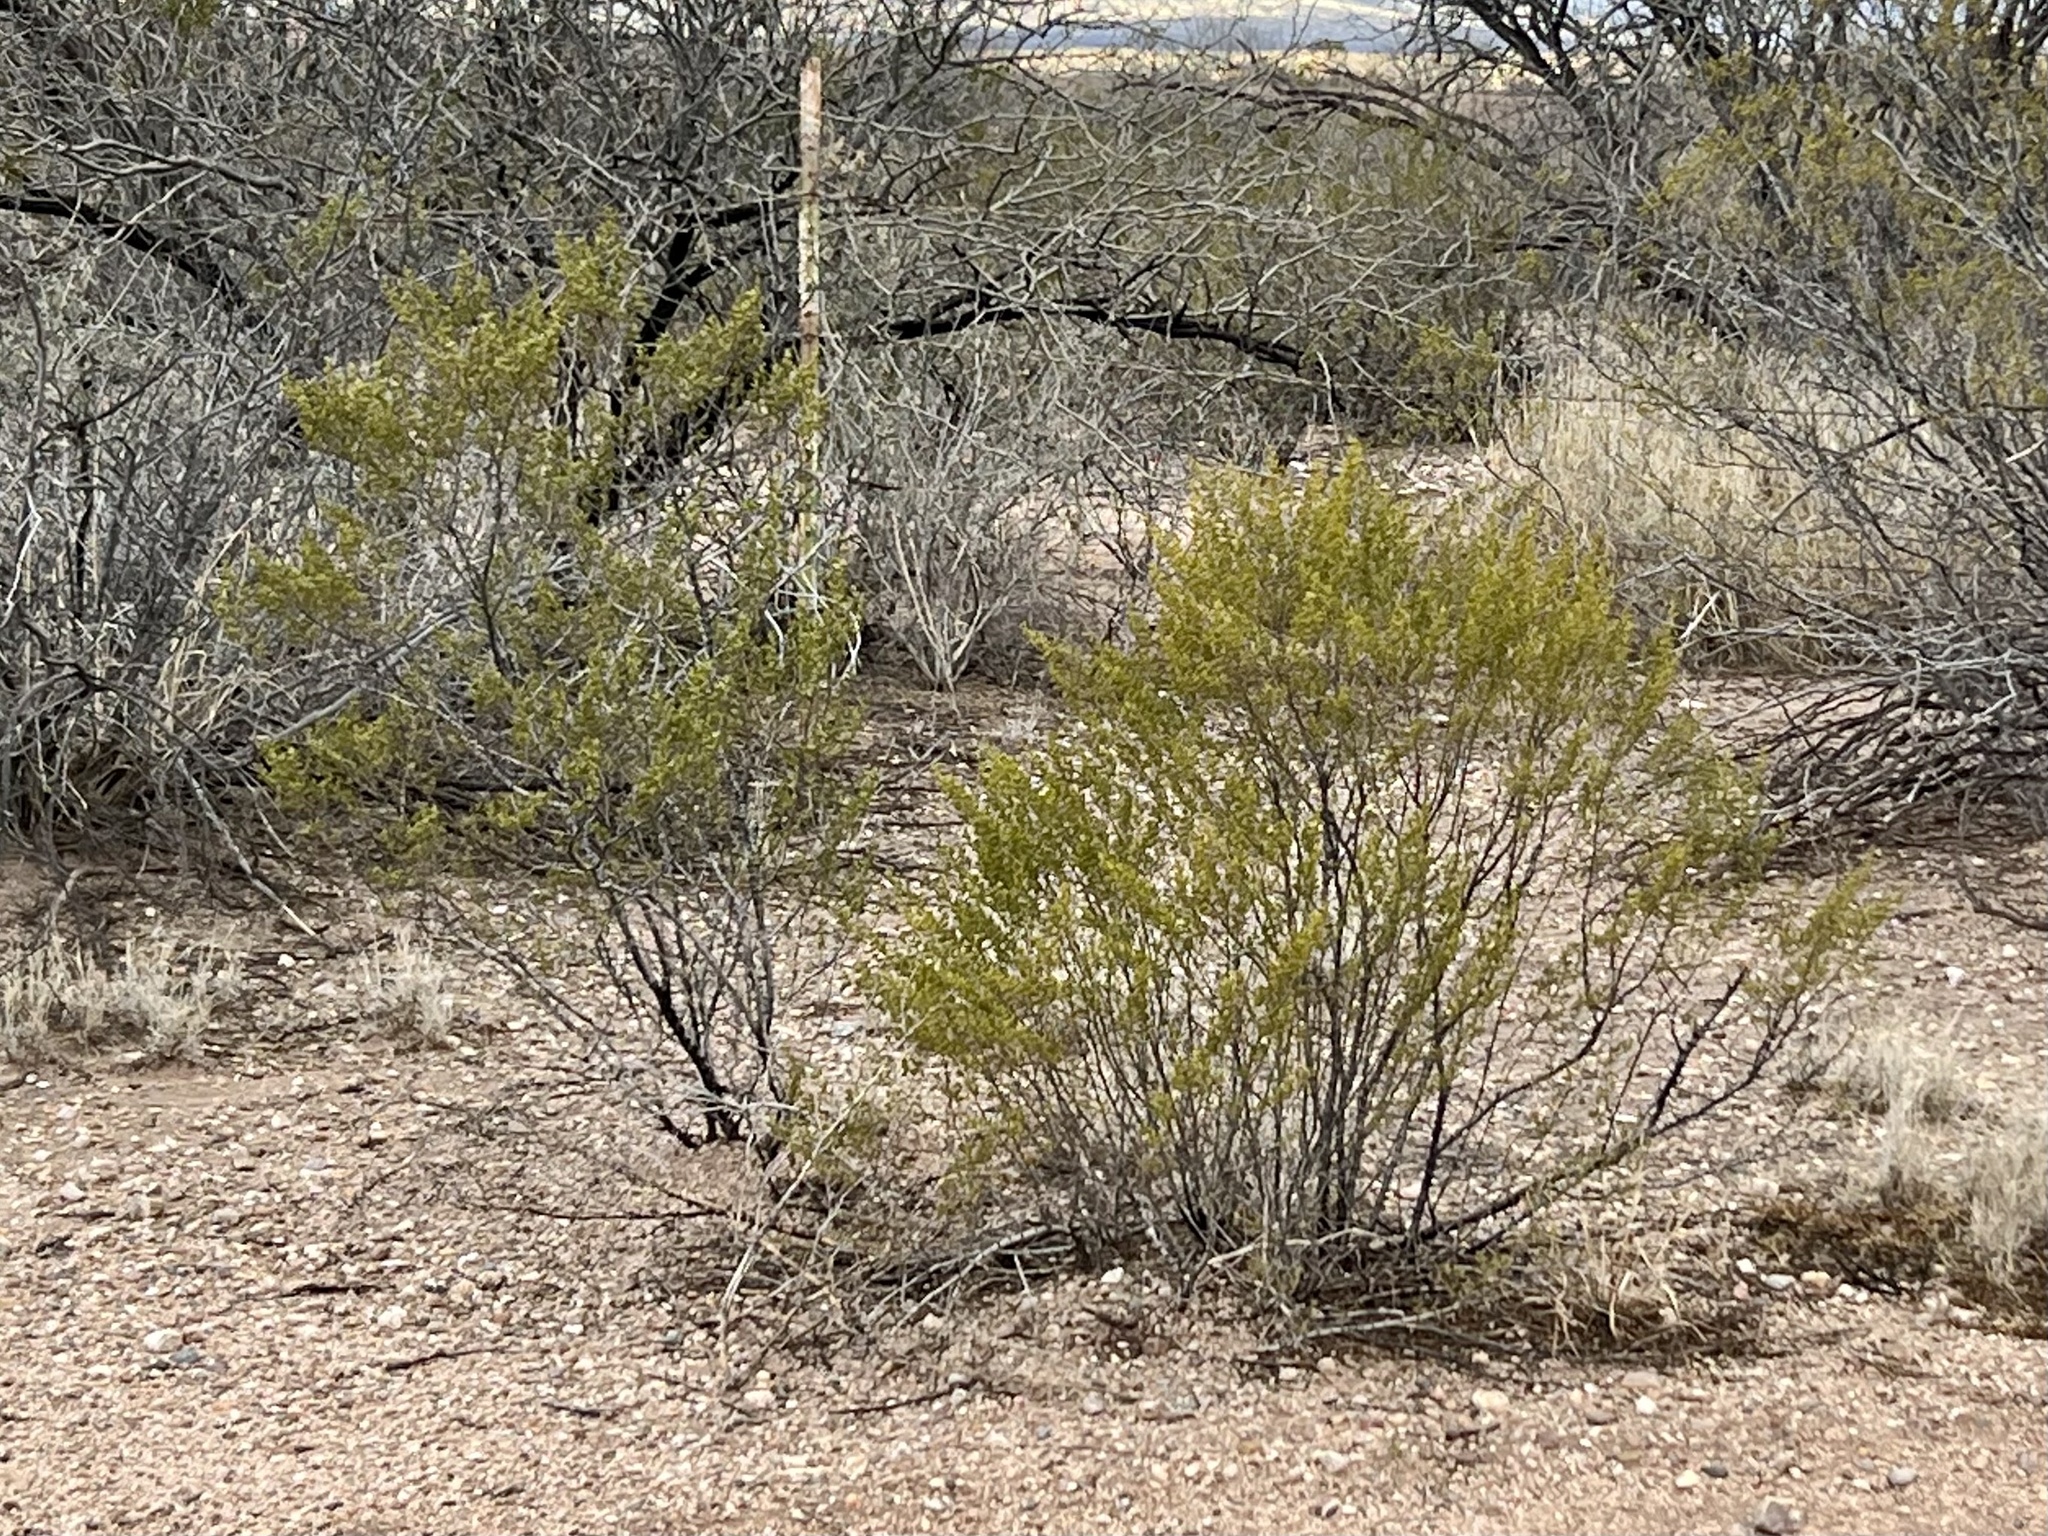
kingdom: Plantae
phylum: Tracheophyta
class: Magnoliopsida
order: Zygophyllales
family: Zygophyllaceae
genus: Larrea
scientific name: Larrea tridentata
